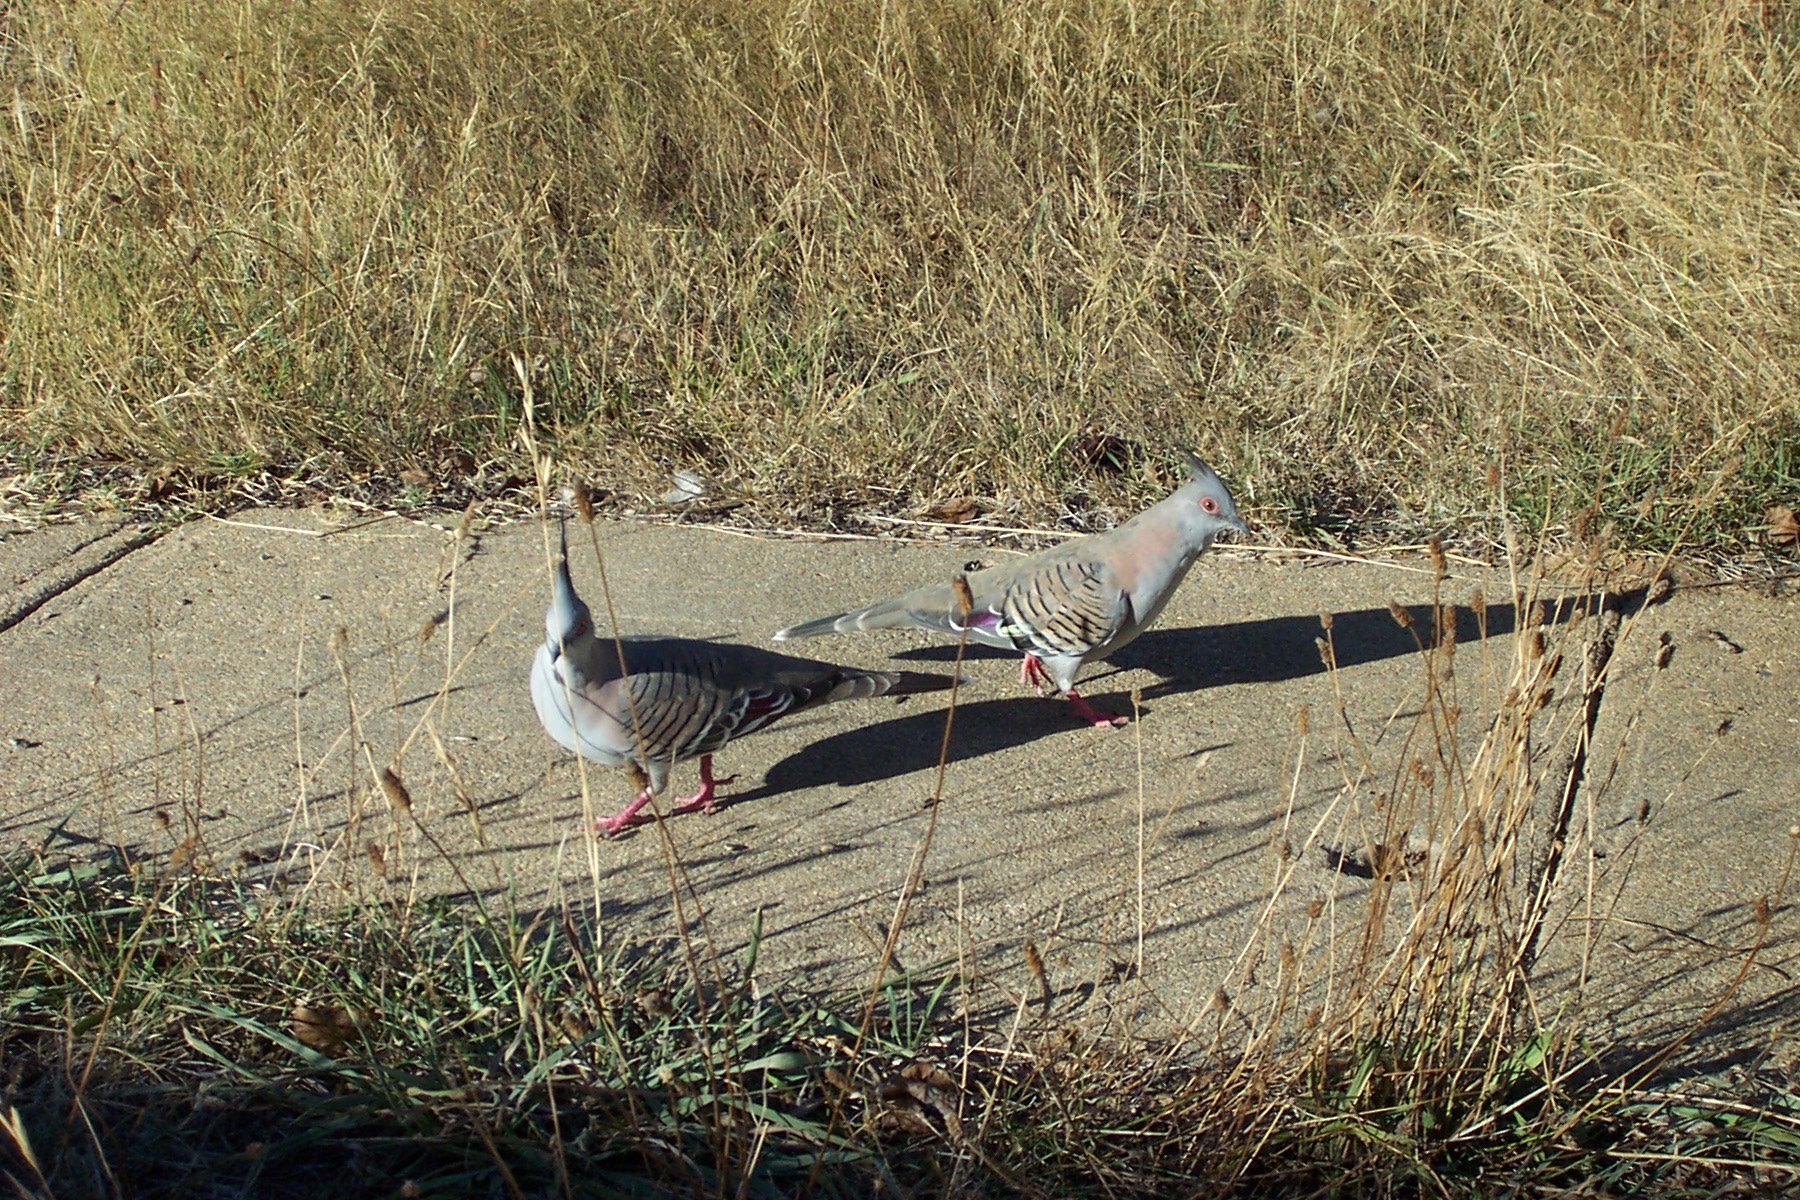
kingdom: Animalia
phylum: Chordata
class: Aves
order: Columbiformes
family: Columbidae
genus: Ocyphaps
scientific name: Ocyphaps lophotes
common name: Crested pigeon
